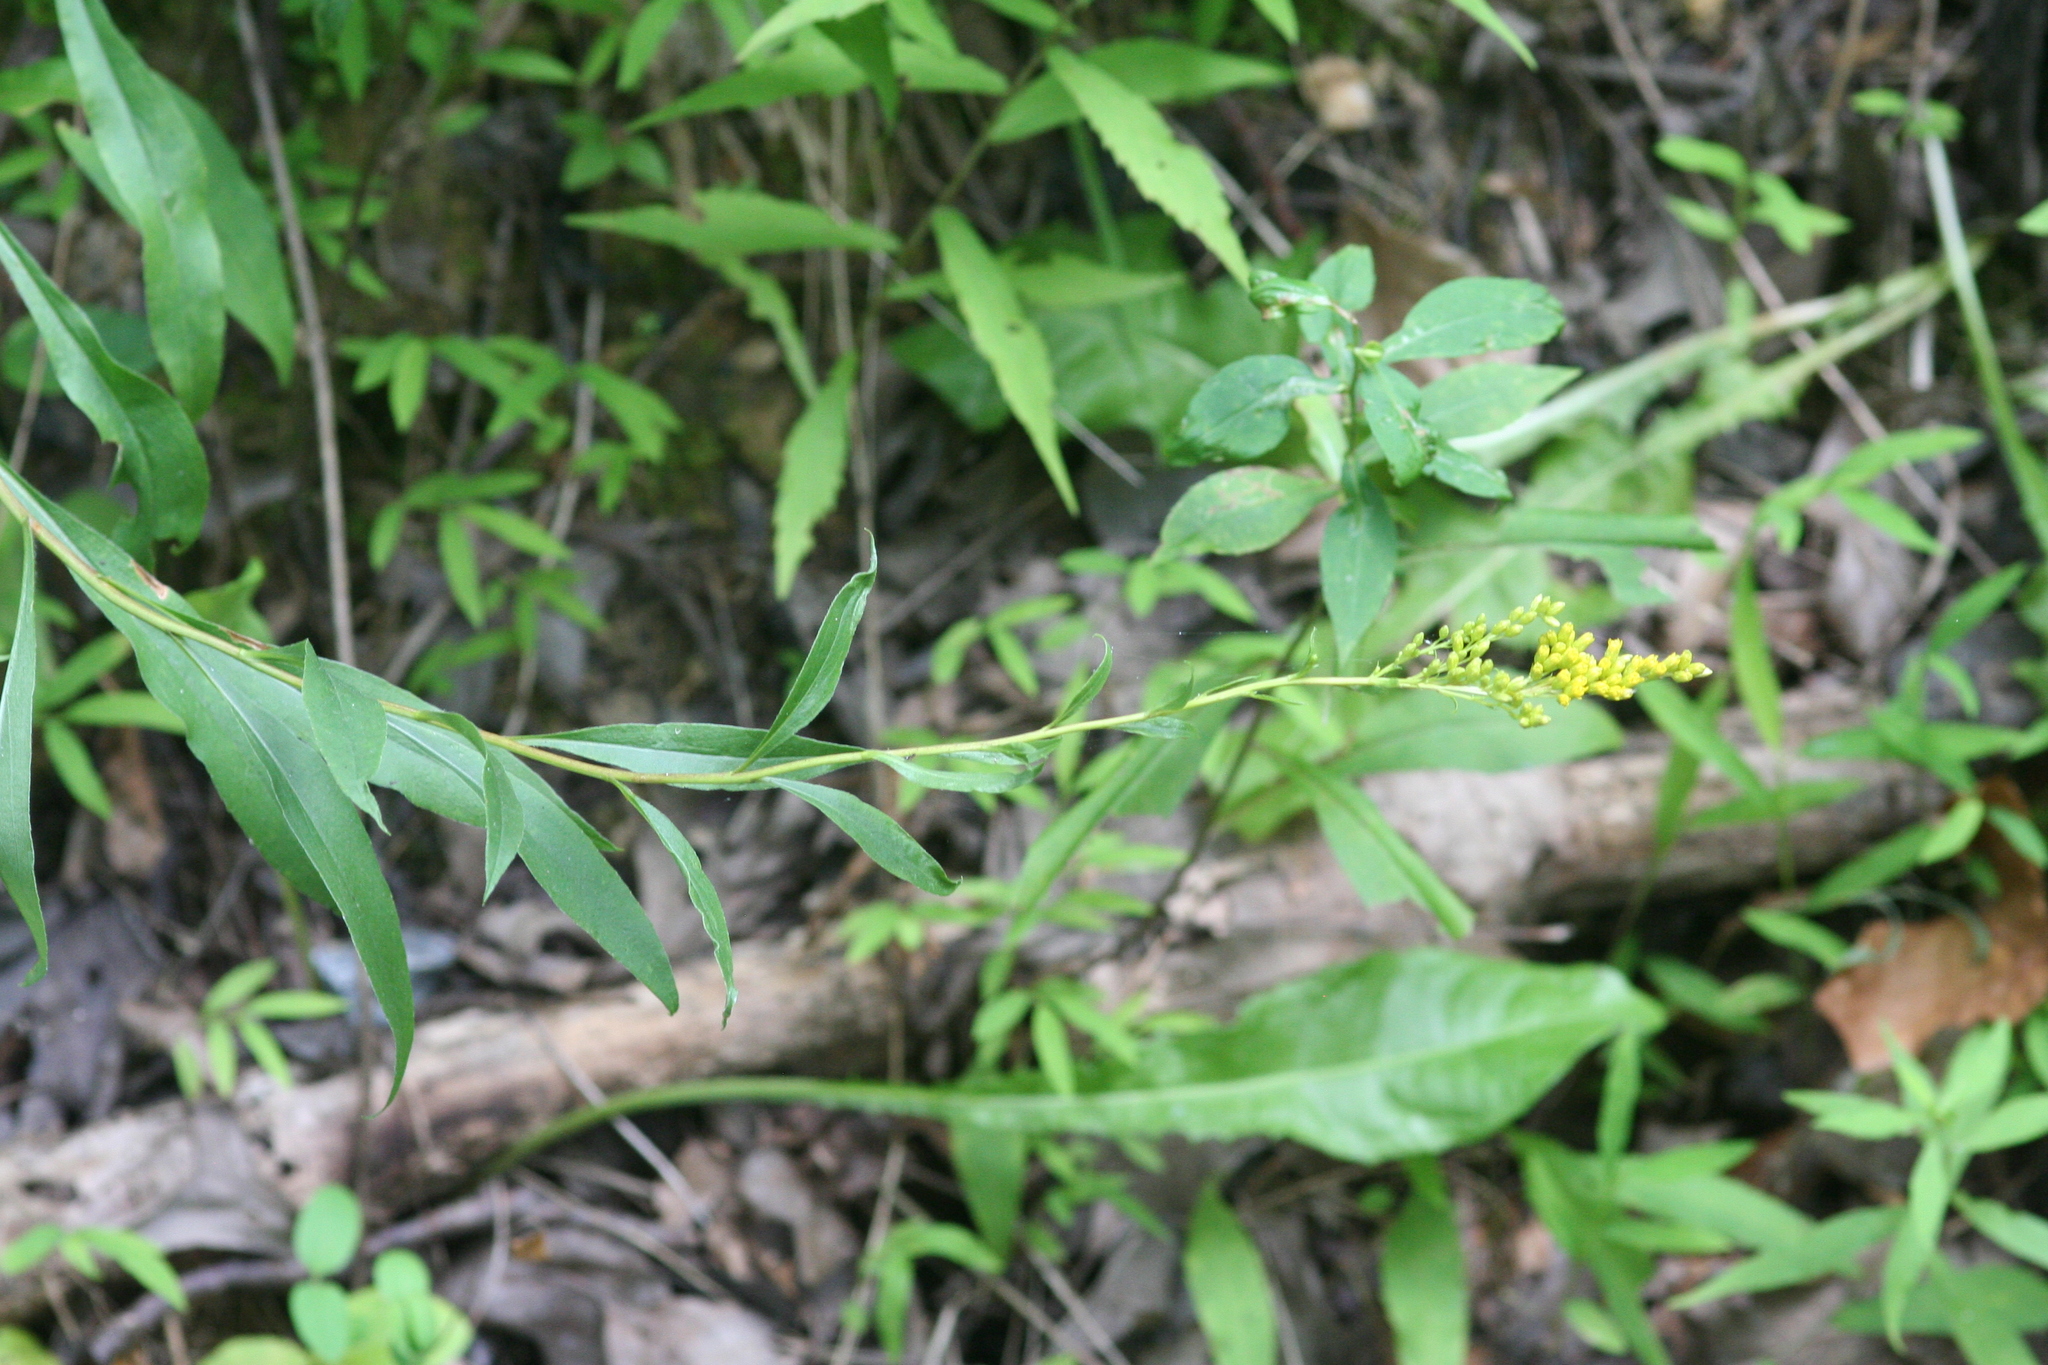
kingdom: Plantae
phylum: Tracheophyta
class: Magnoliopsida
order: Asterales
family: Asteraceae
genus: Solidago
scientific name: Solidago juncea
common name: Early goldenrod
